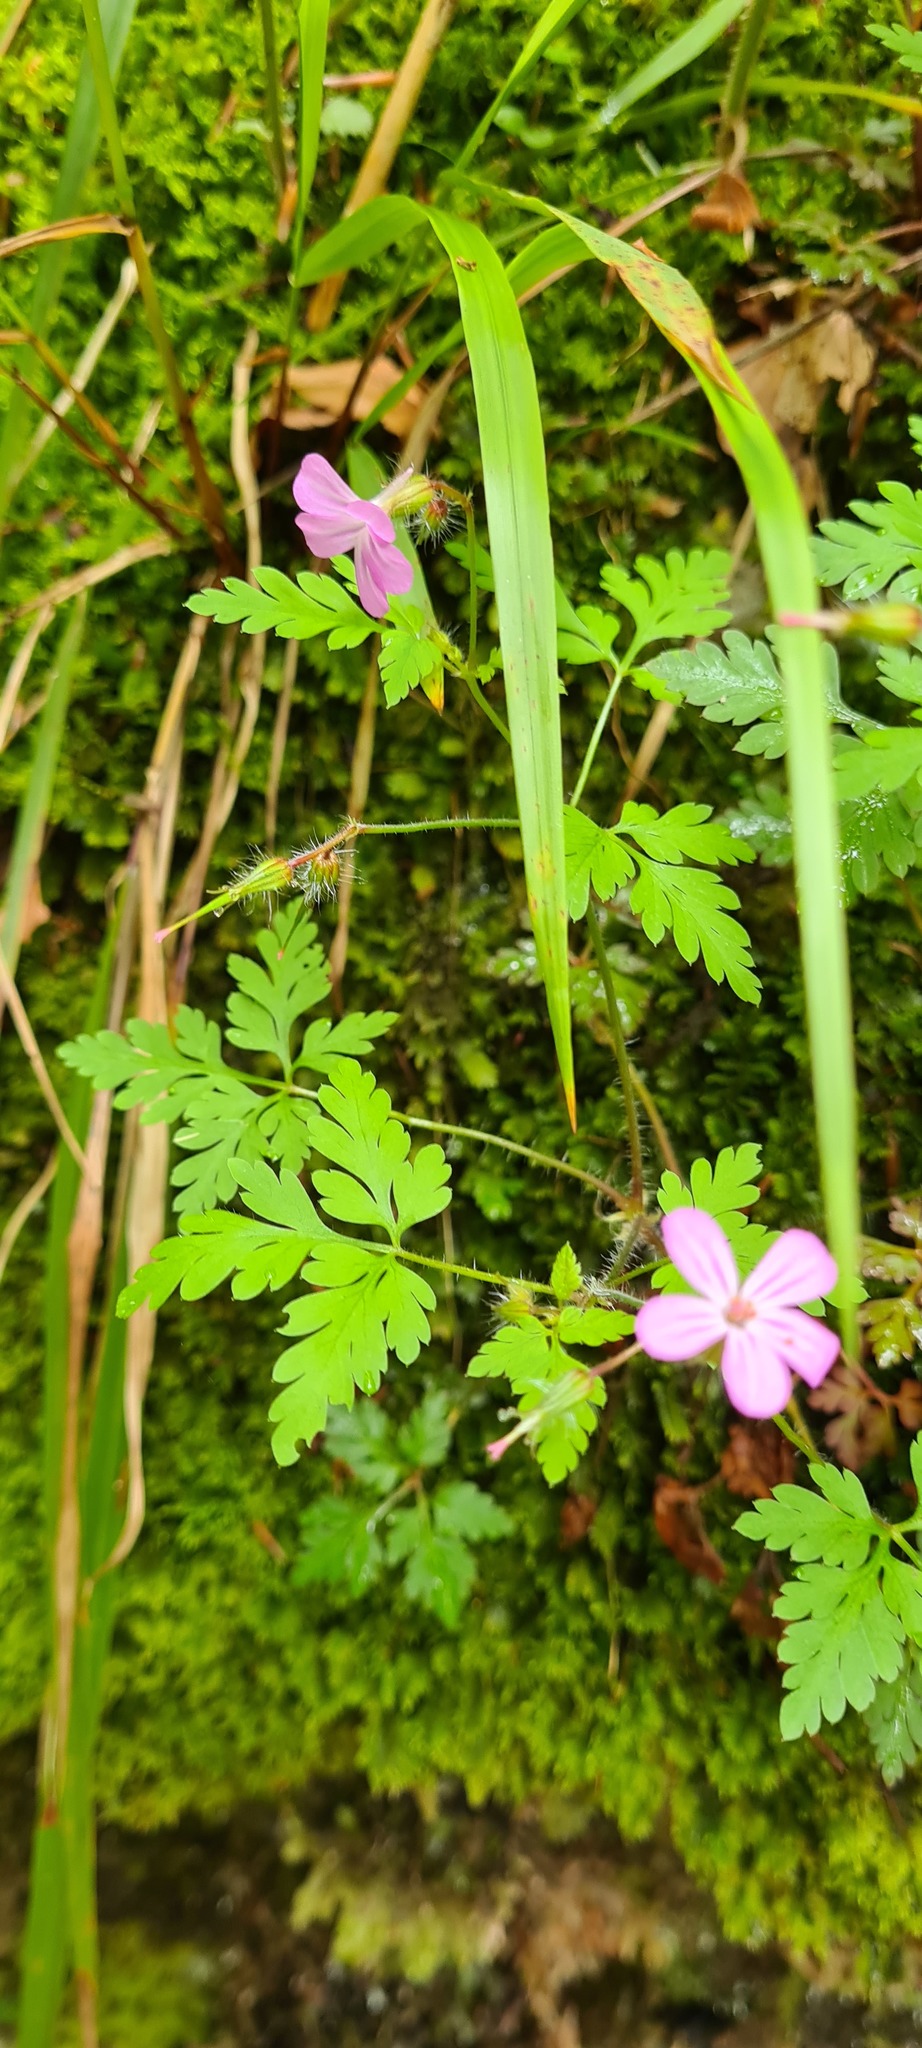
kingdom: Plantae
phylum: Tracheophyta
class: Magnoliopsida
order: Geraniales
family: Geraniaceae
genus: Geranium
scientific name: Geranium robertianum
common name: Herb-robert
